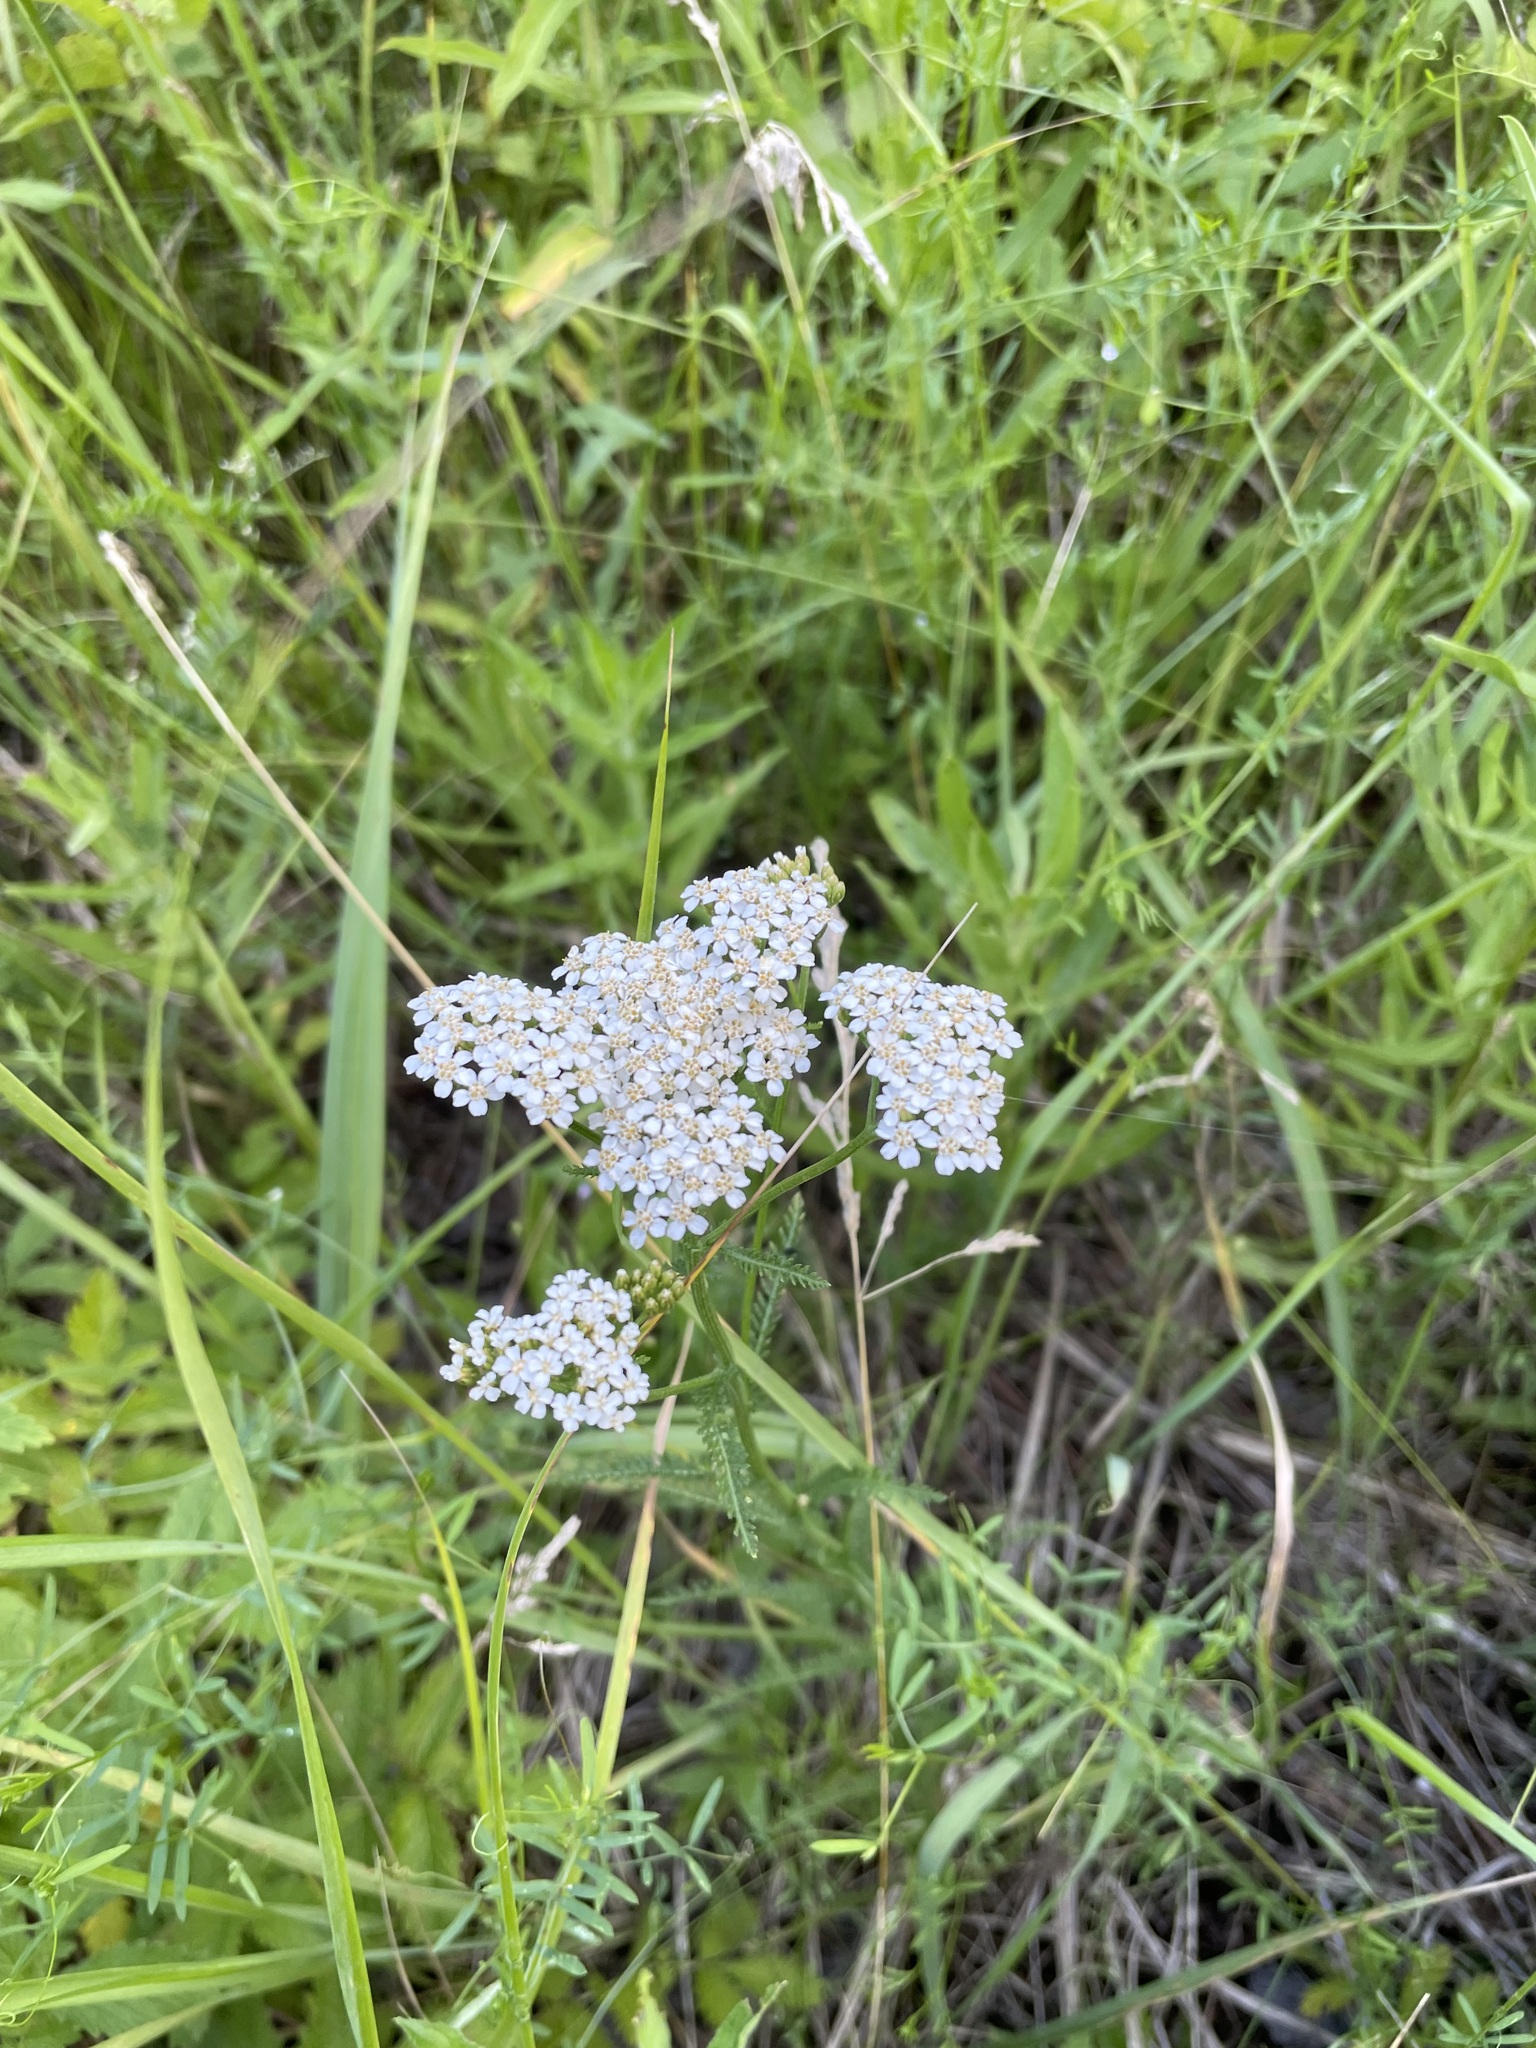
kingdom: Plantae
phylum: Tracheophyta
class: Magnoliopsida
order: Asterales
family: Asteraceae
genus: Achillea
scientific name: Achillea millefolium
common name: Yarrow
